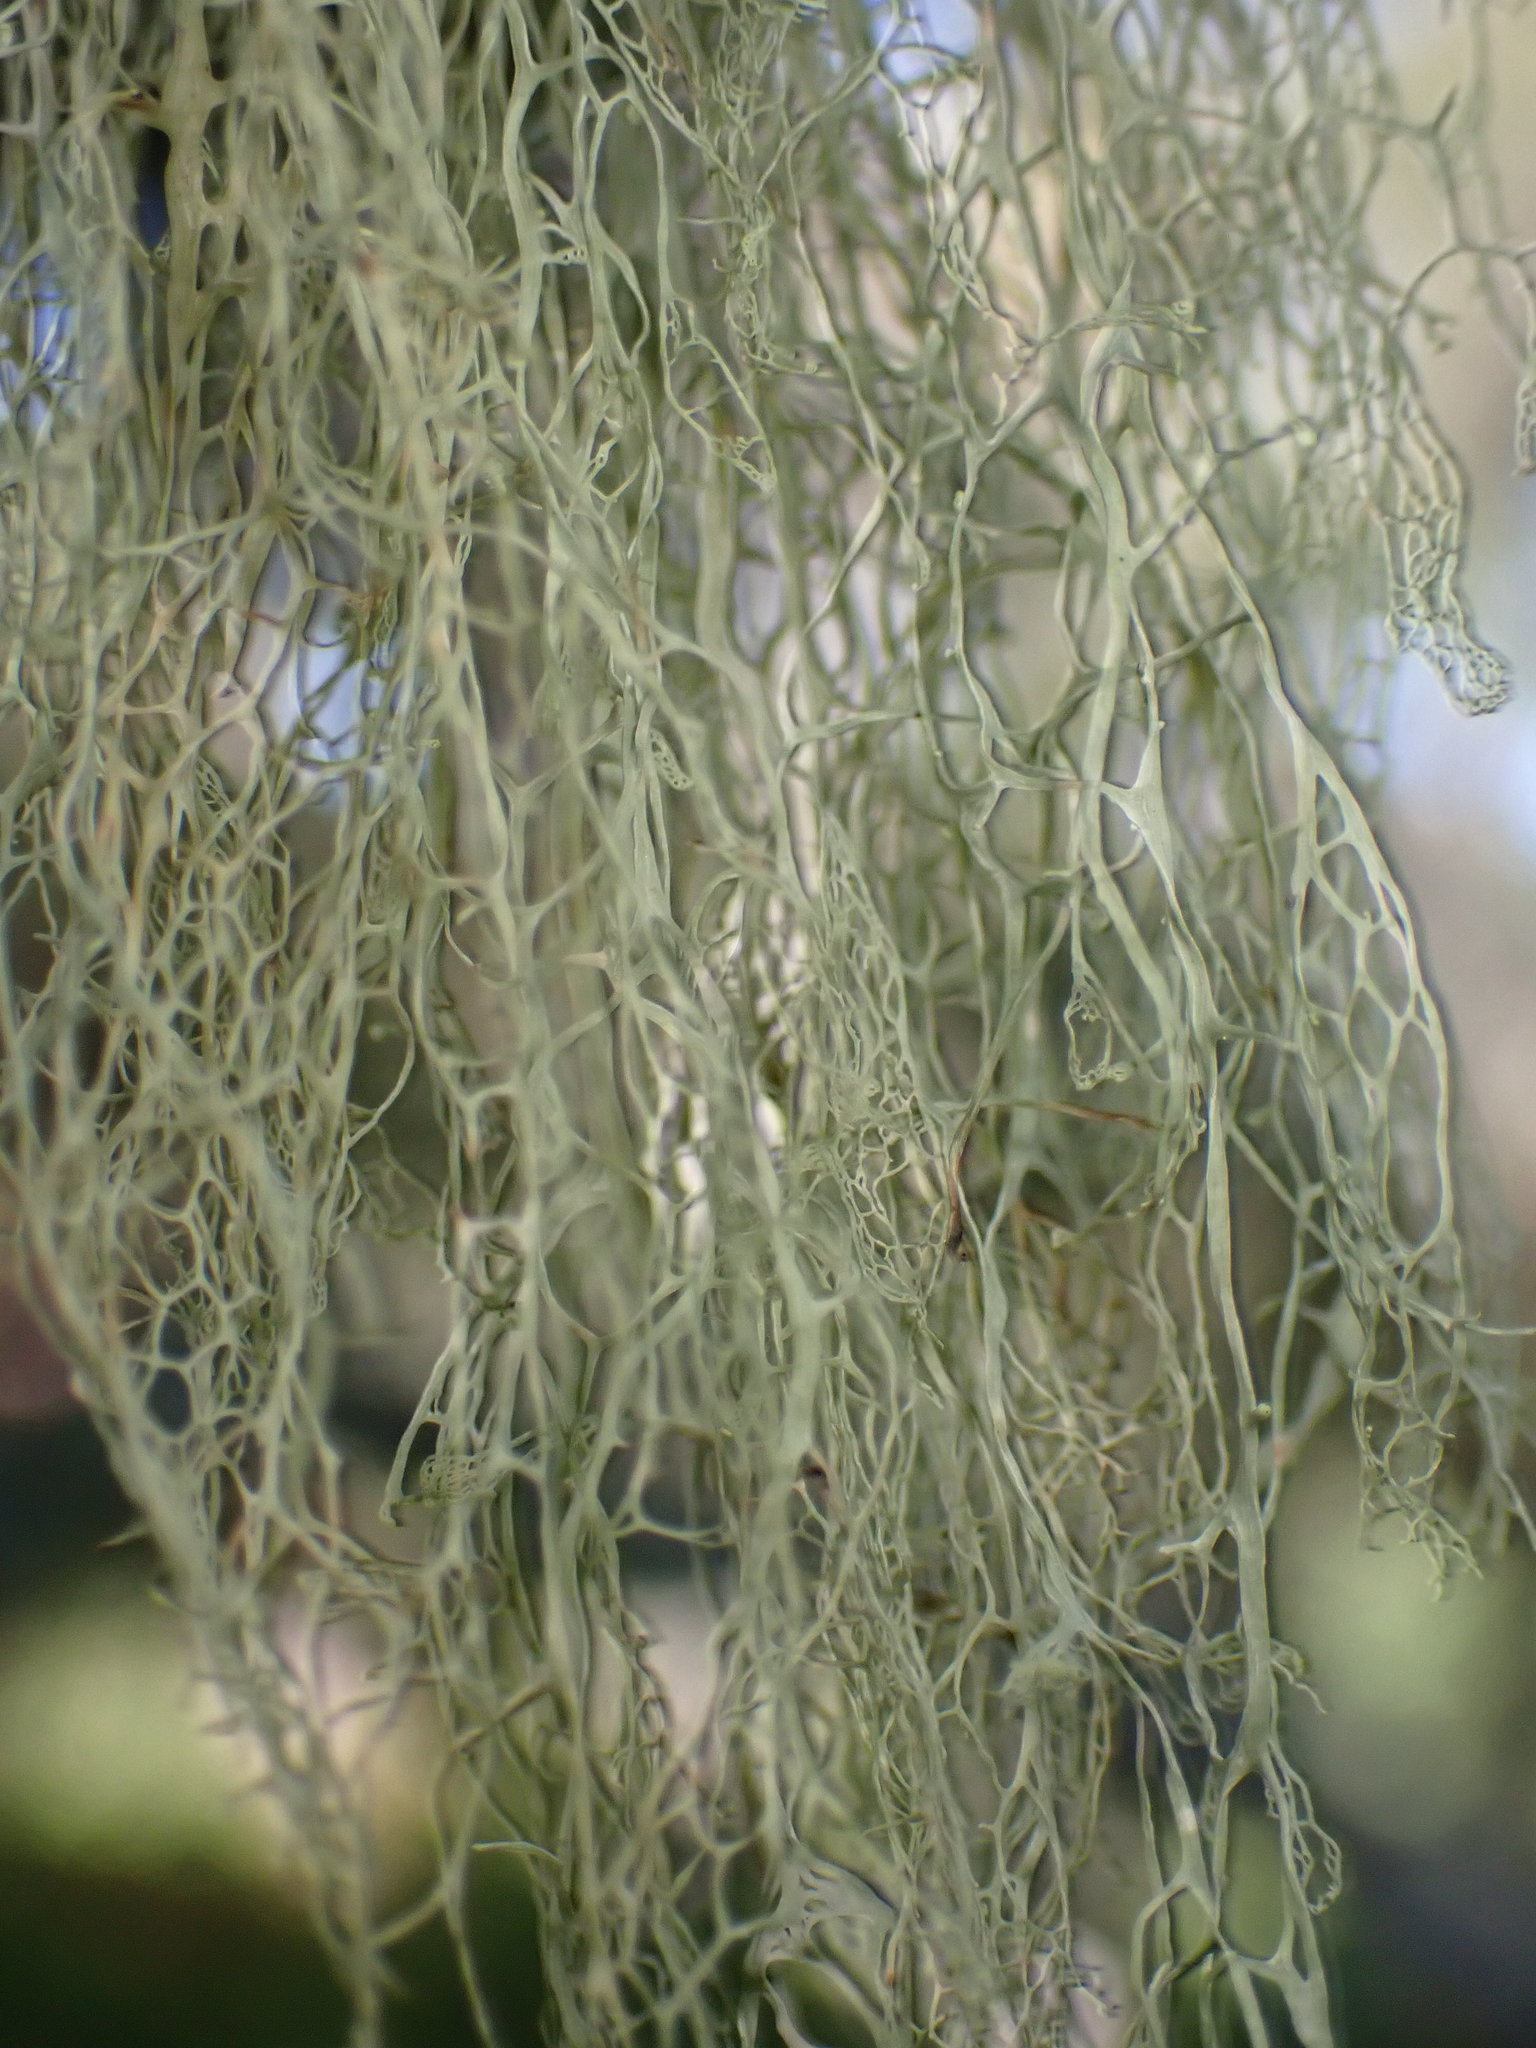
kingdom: Fungi
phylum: Ascomycota
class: Lecanoromycetes
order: Lecanorales
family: Ramalinaceae
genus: Ramalina
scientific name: Ramalina menziesii
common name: Lace lichen
